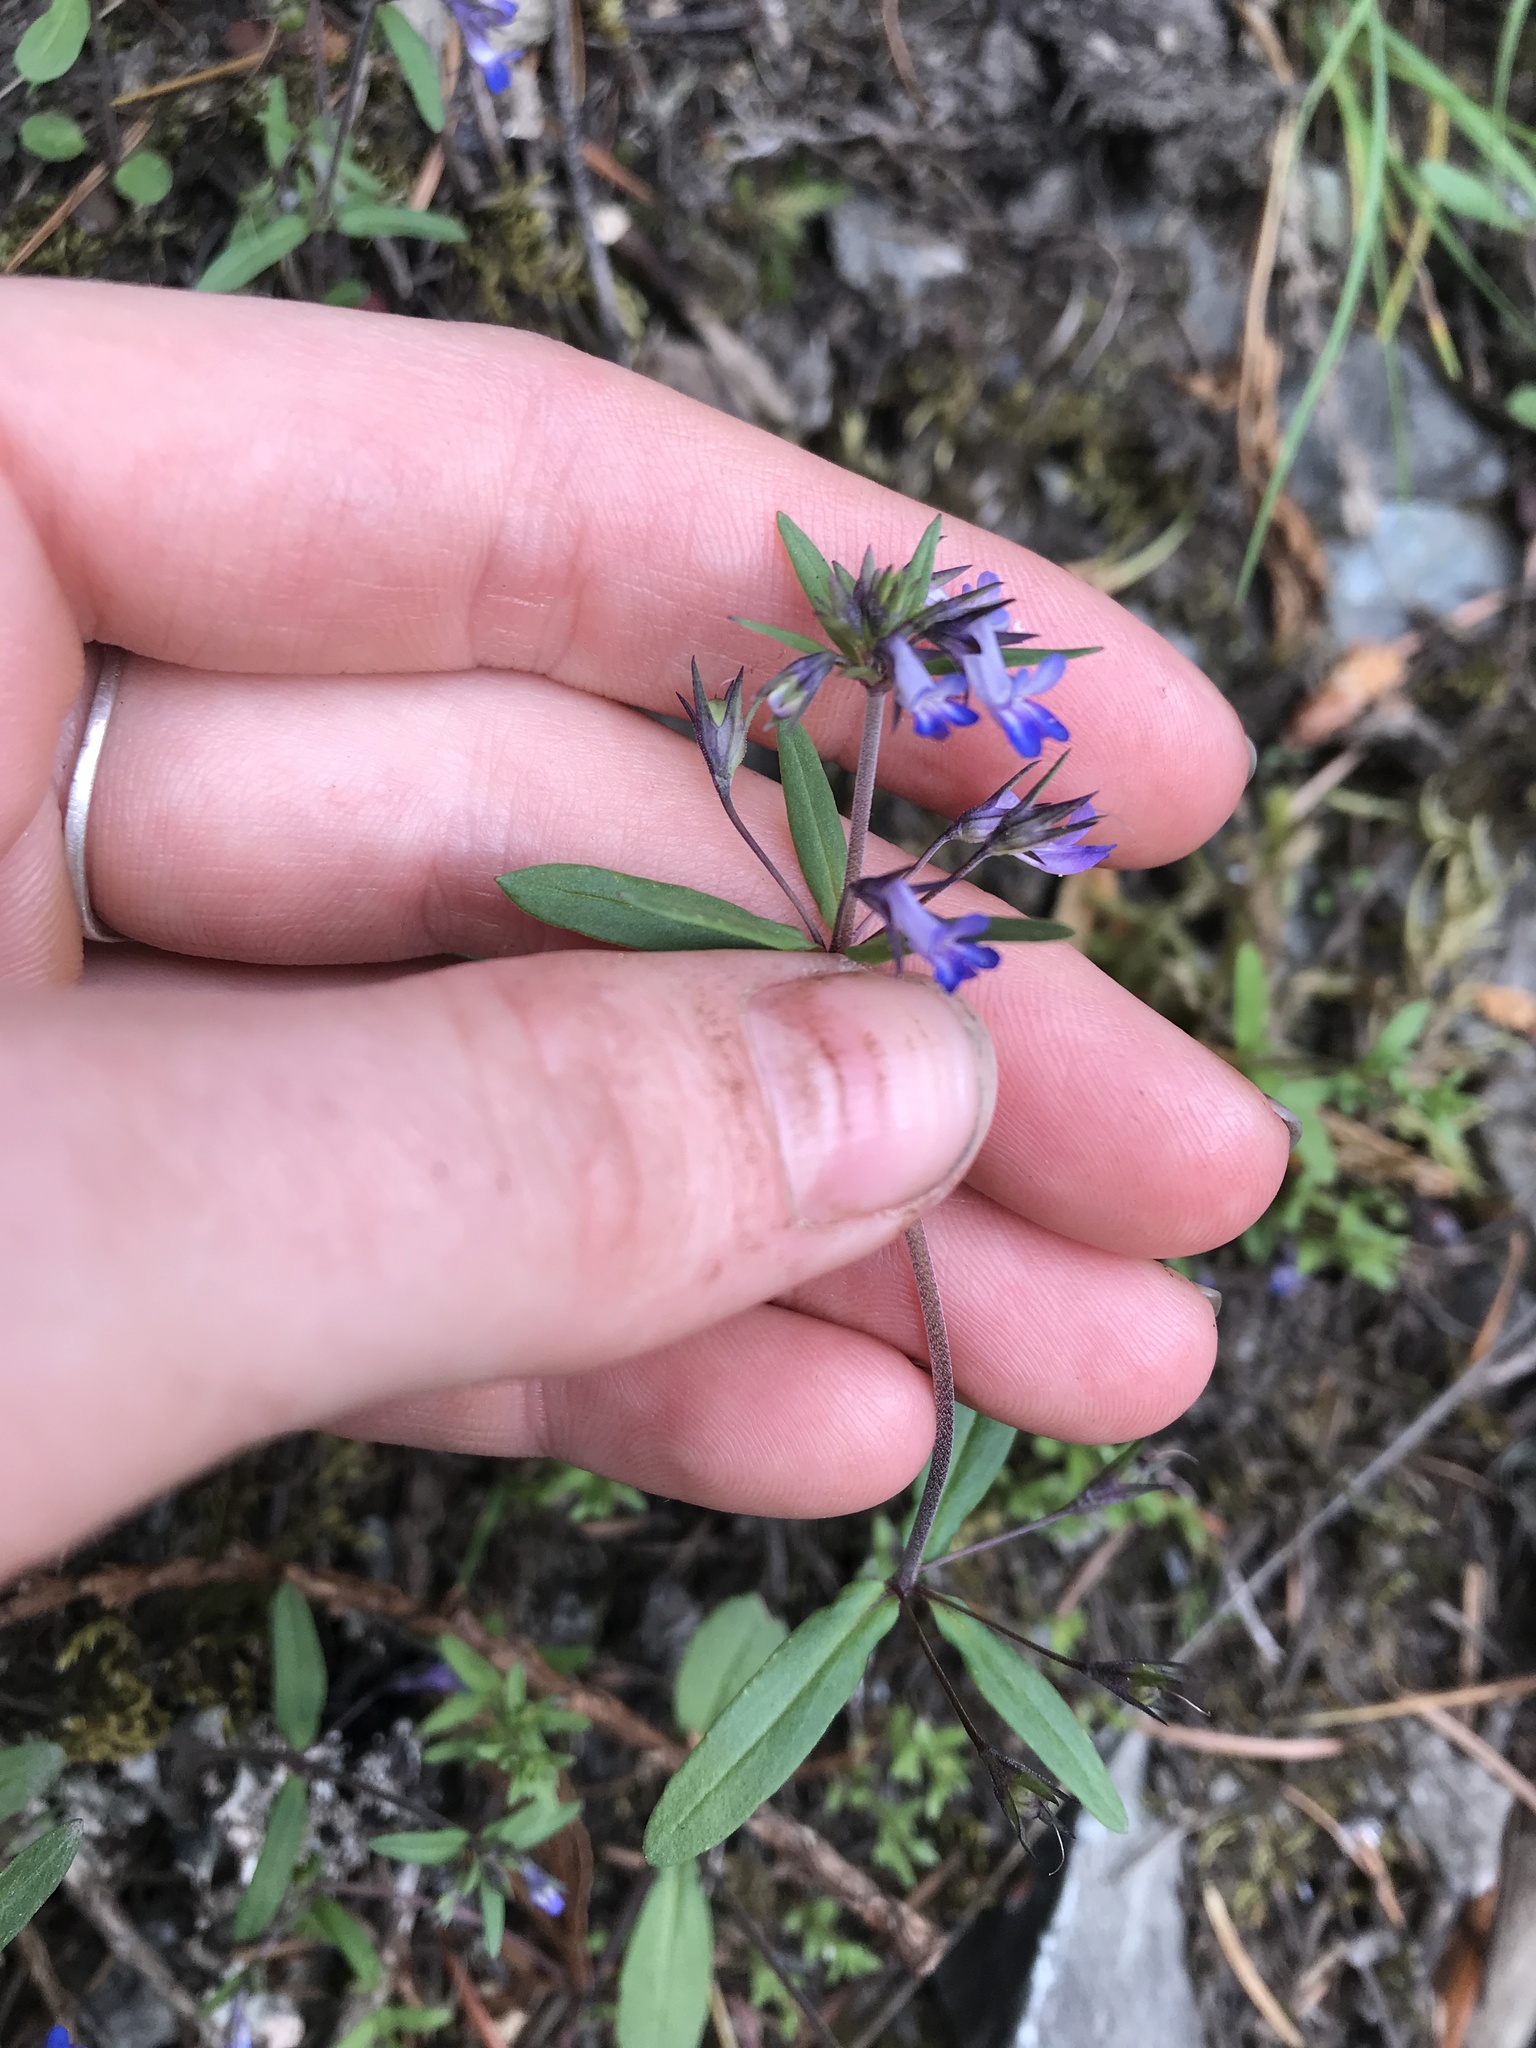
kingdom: Plantae
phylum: Tracheophyta
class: Magnoliopsida
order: Lamiales
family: Plantaginaceae
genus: Collinsia
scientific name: Collinsia parviflora
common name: Blue-lips
